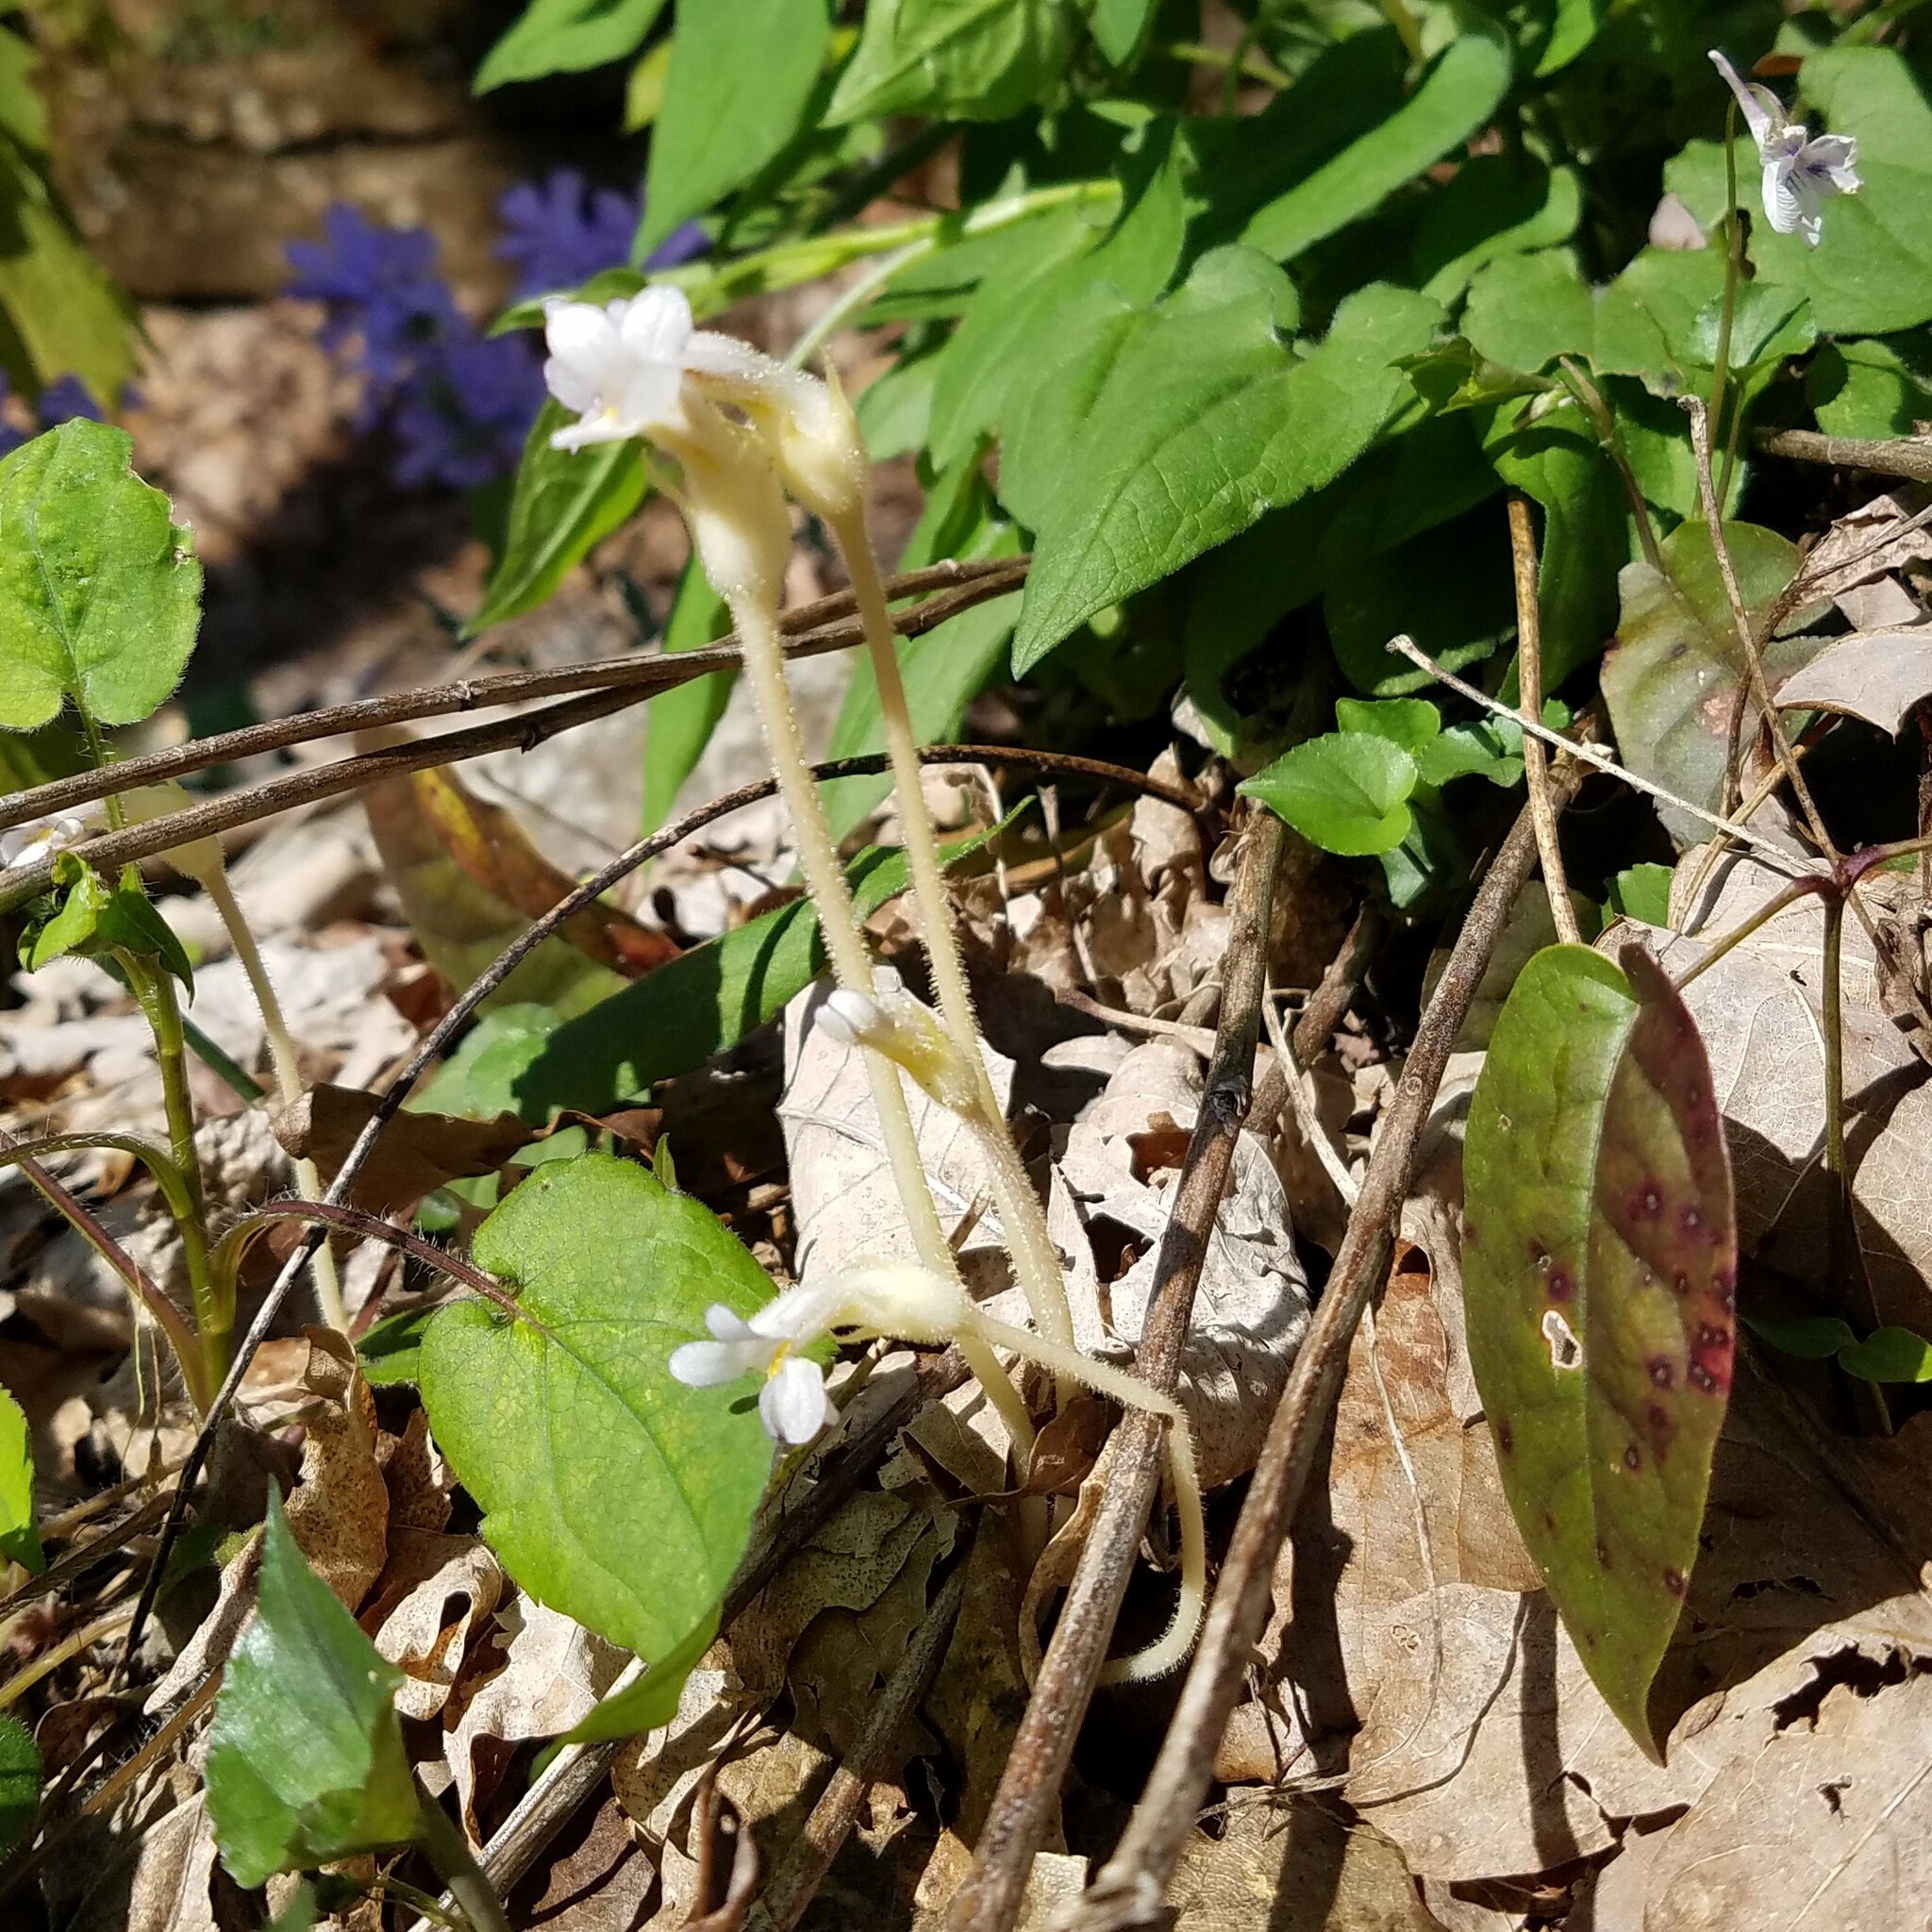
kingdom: Plantae
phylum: Tracheophyta
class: Magnoliopsida
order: Lamiales
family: Orobanchaceae
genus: Aphyllon
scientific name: Aphyllon uniflorum
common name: One-flowered broomrape
